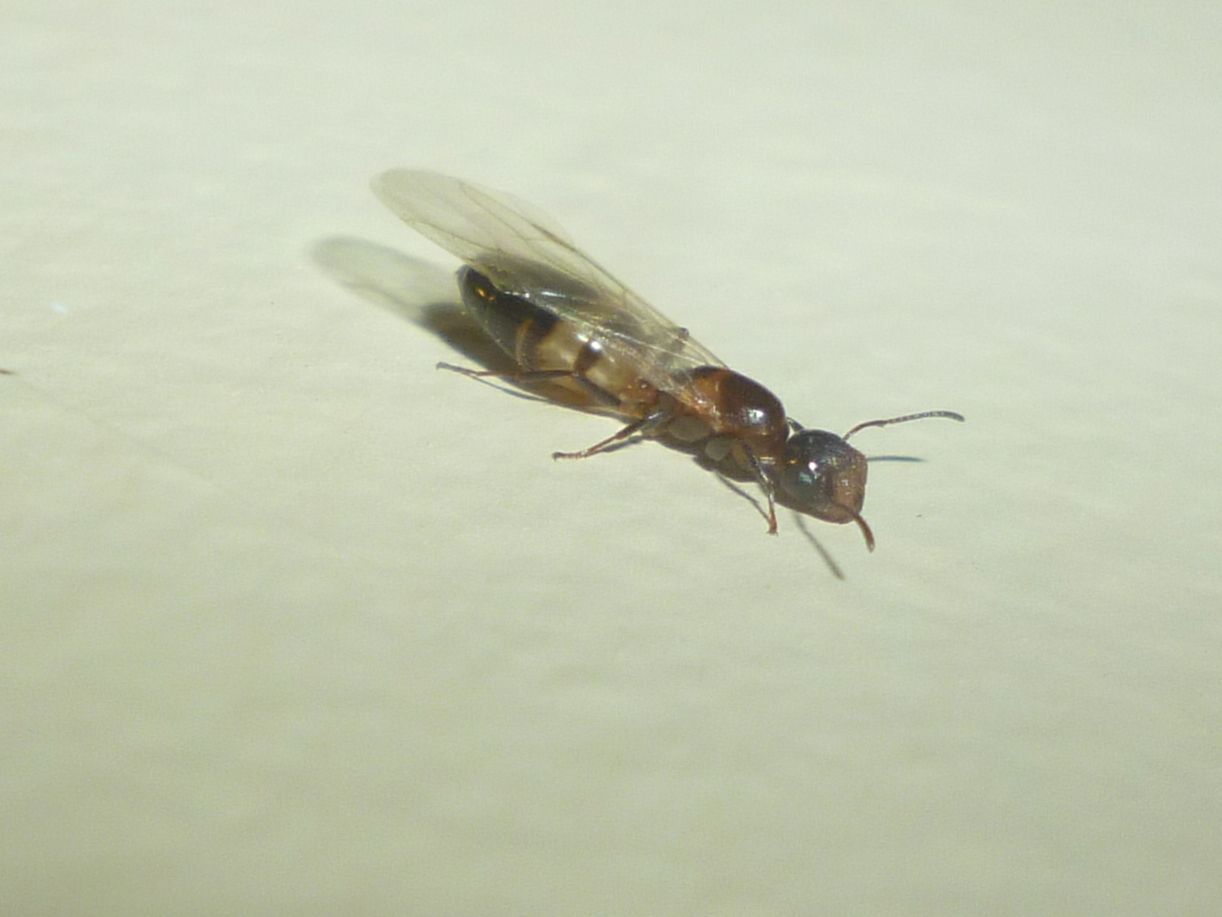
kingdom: Animalia
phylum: Arthropoda
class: Insecta
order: Hymenoptera
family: Formicidae
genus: Colobopsis
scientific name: Colobopsis impressa
